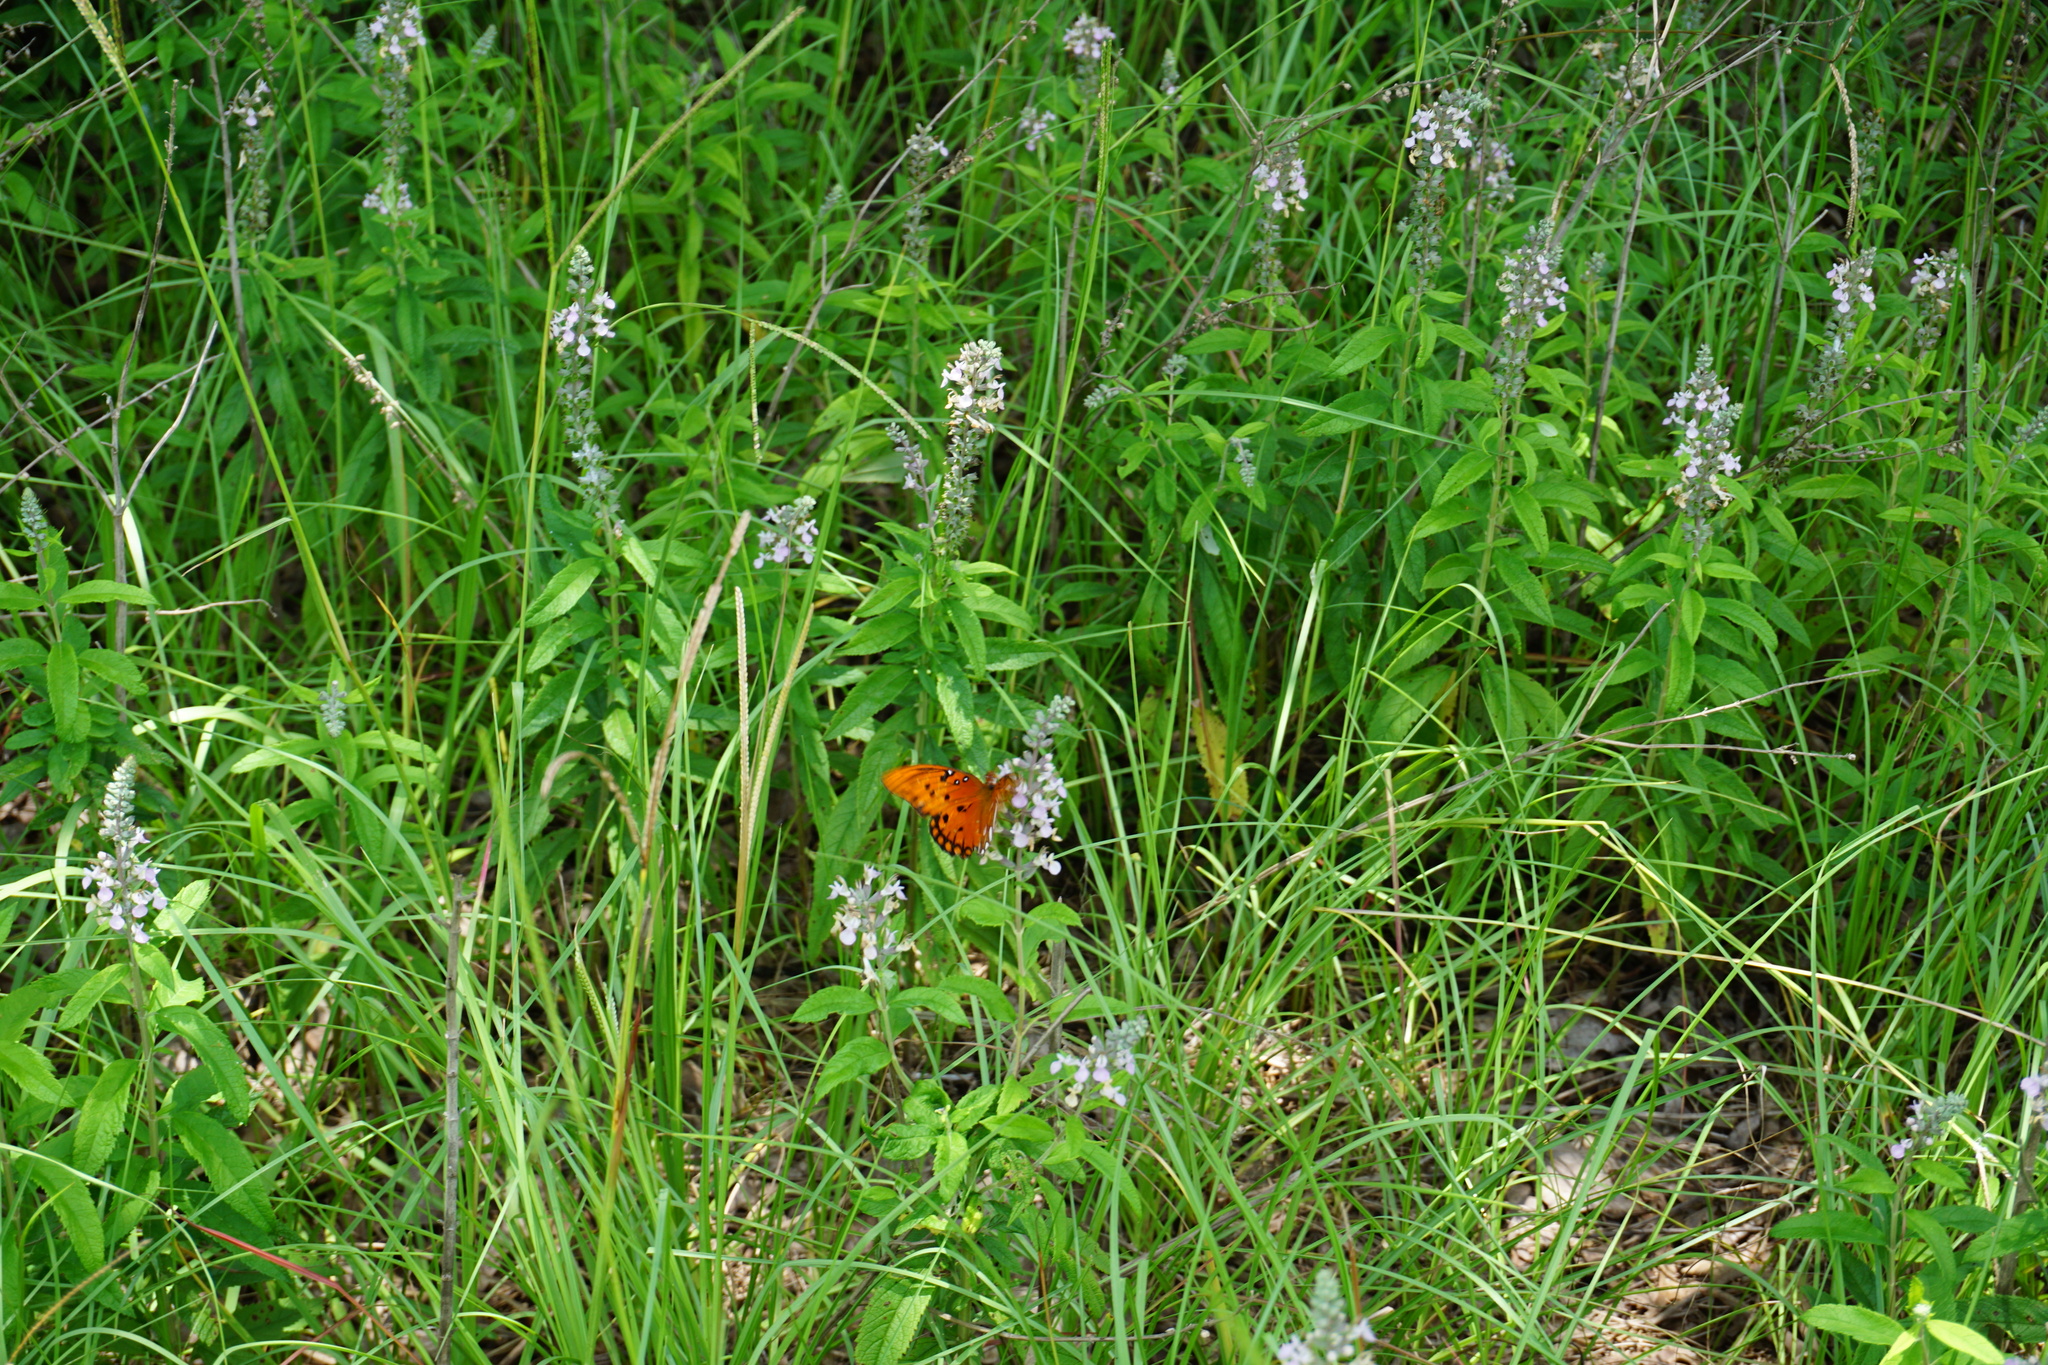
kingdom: Animalia
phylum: Arthropoda
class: Insecta
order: Lepidoptera
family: Nymphalidae
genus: Dione
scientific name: Dione vanillae
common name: Gulf fritillary
